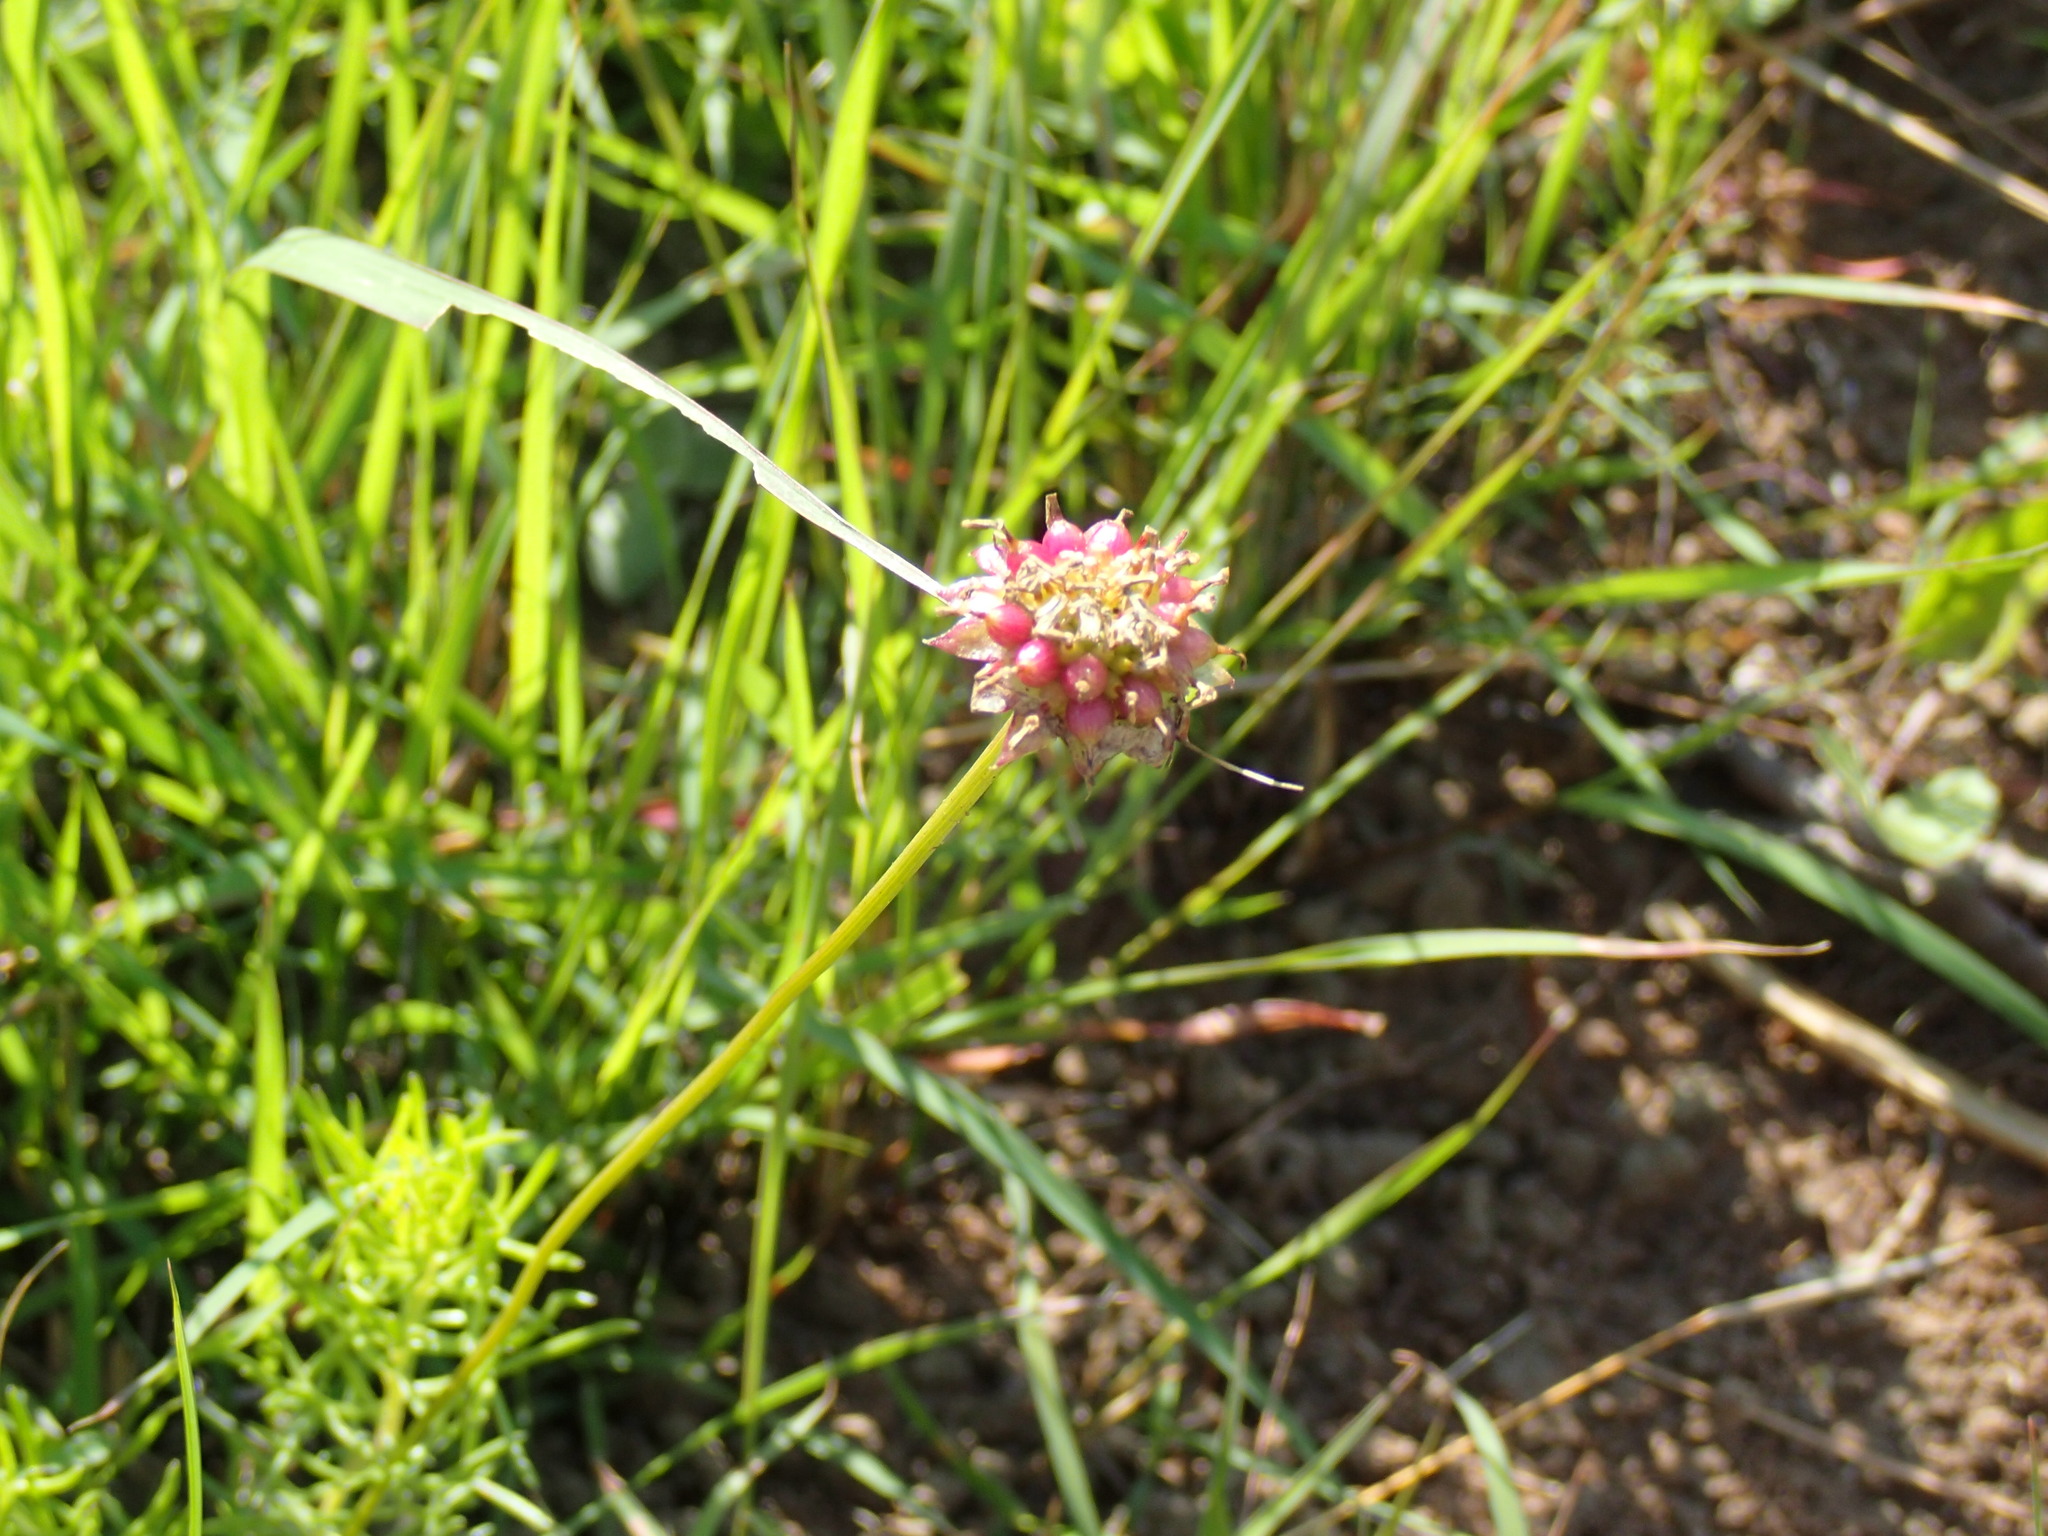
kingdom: Plantae
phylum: Tracheophyta
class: Magnoliopsida
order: Asterales
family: Asteraceae
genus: Ursinia
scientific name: Ursinia saxatilis
